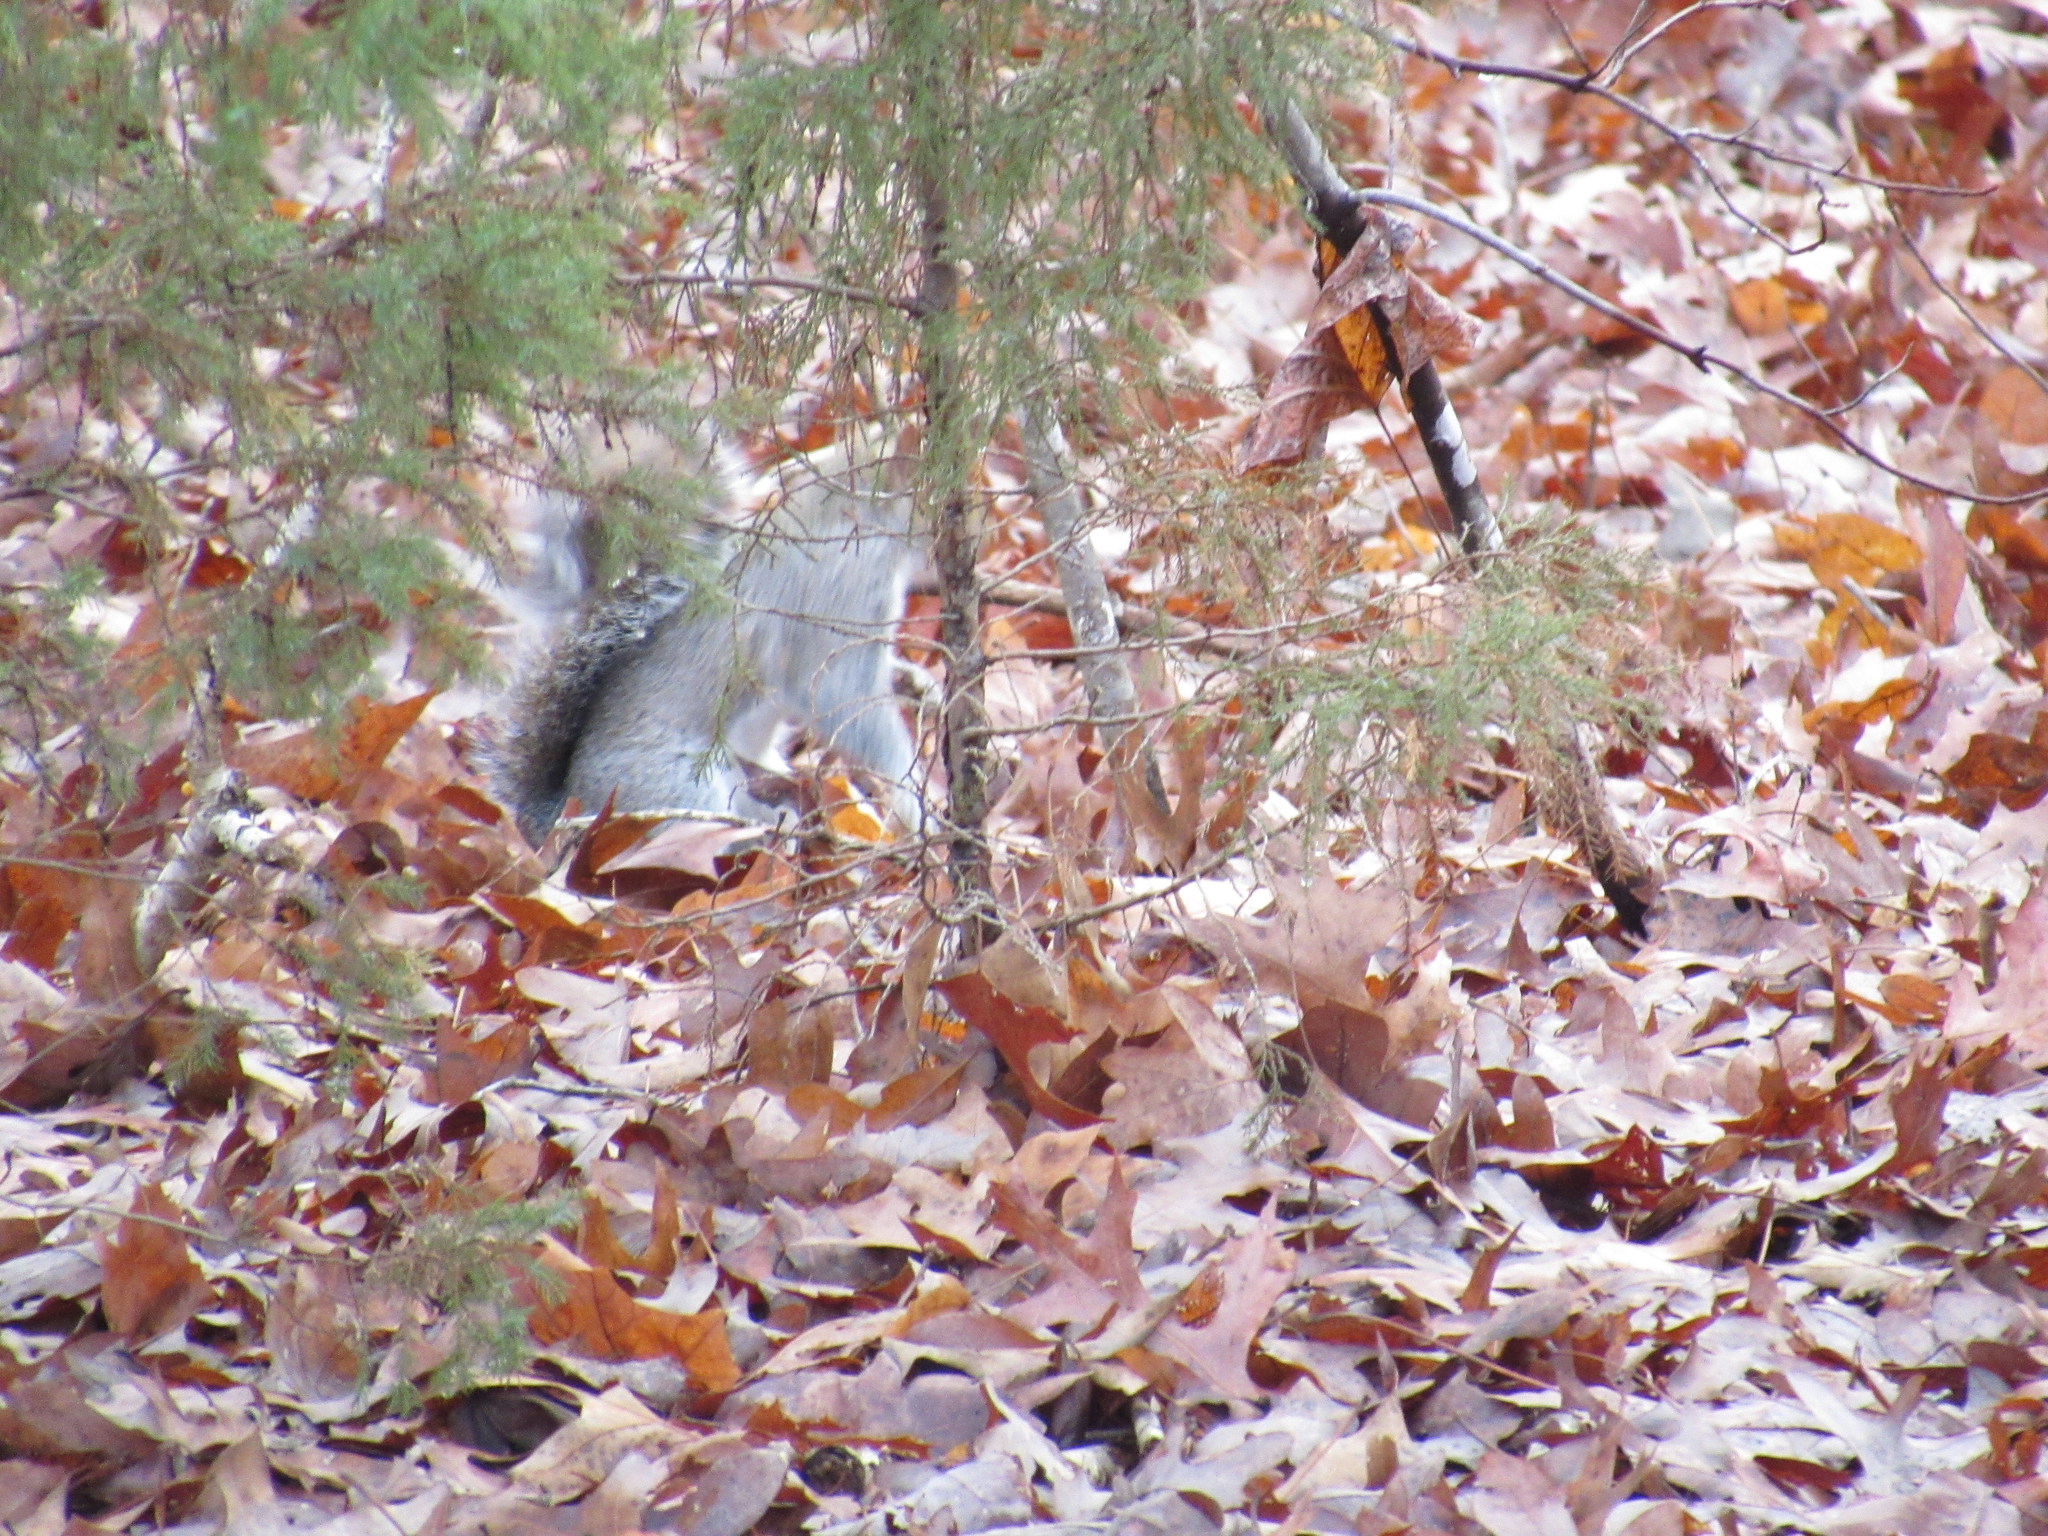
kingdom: Animalia
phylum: Chordata
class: Mammalia
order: Rodentia
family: Sciuridae
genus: Sciurus
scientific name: Sciurus carolinensis
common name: Eastern gray squirrel
